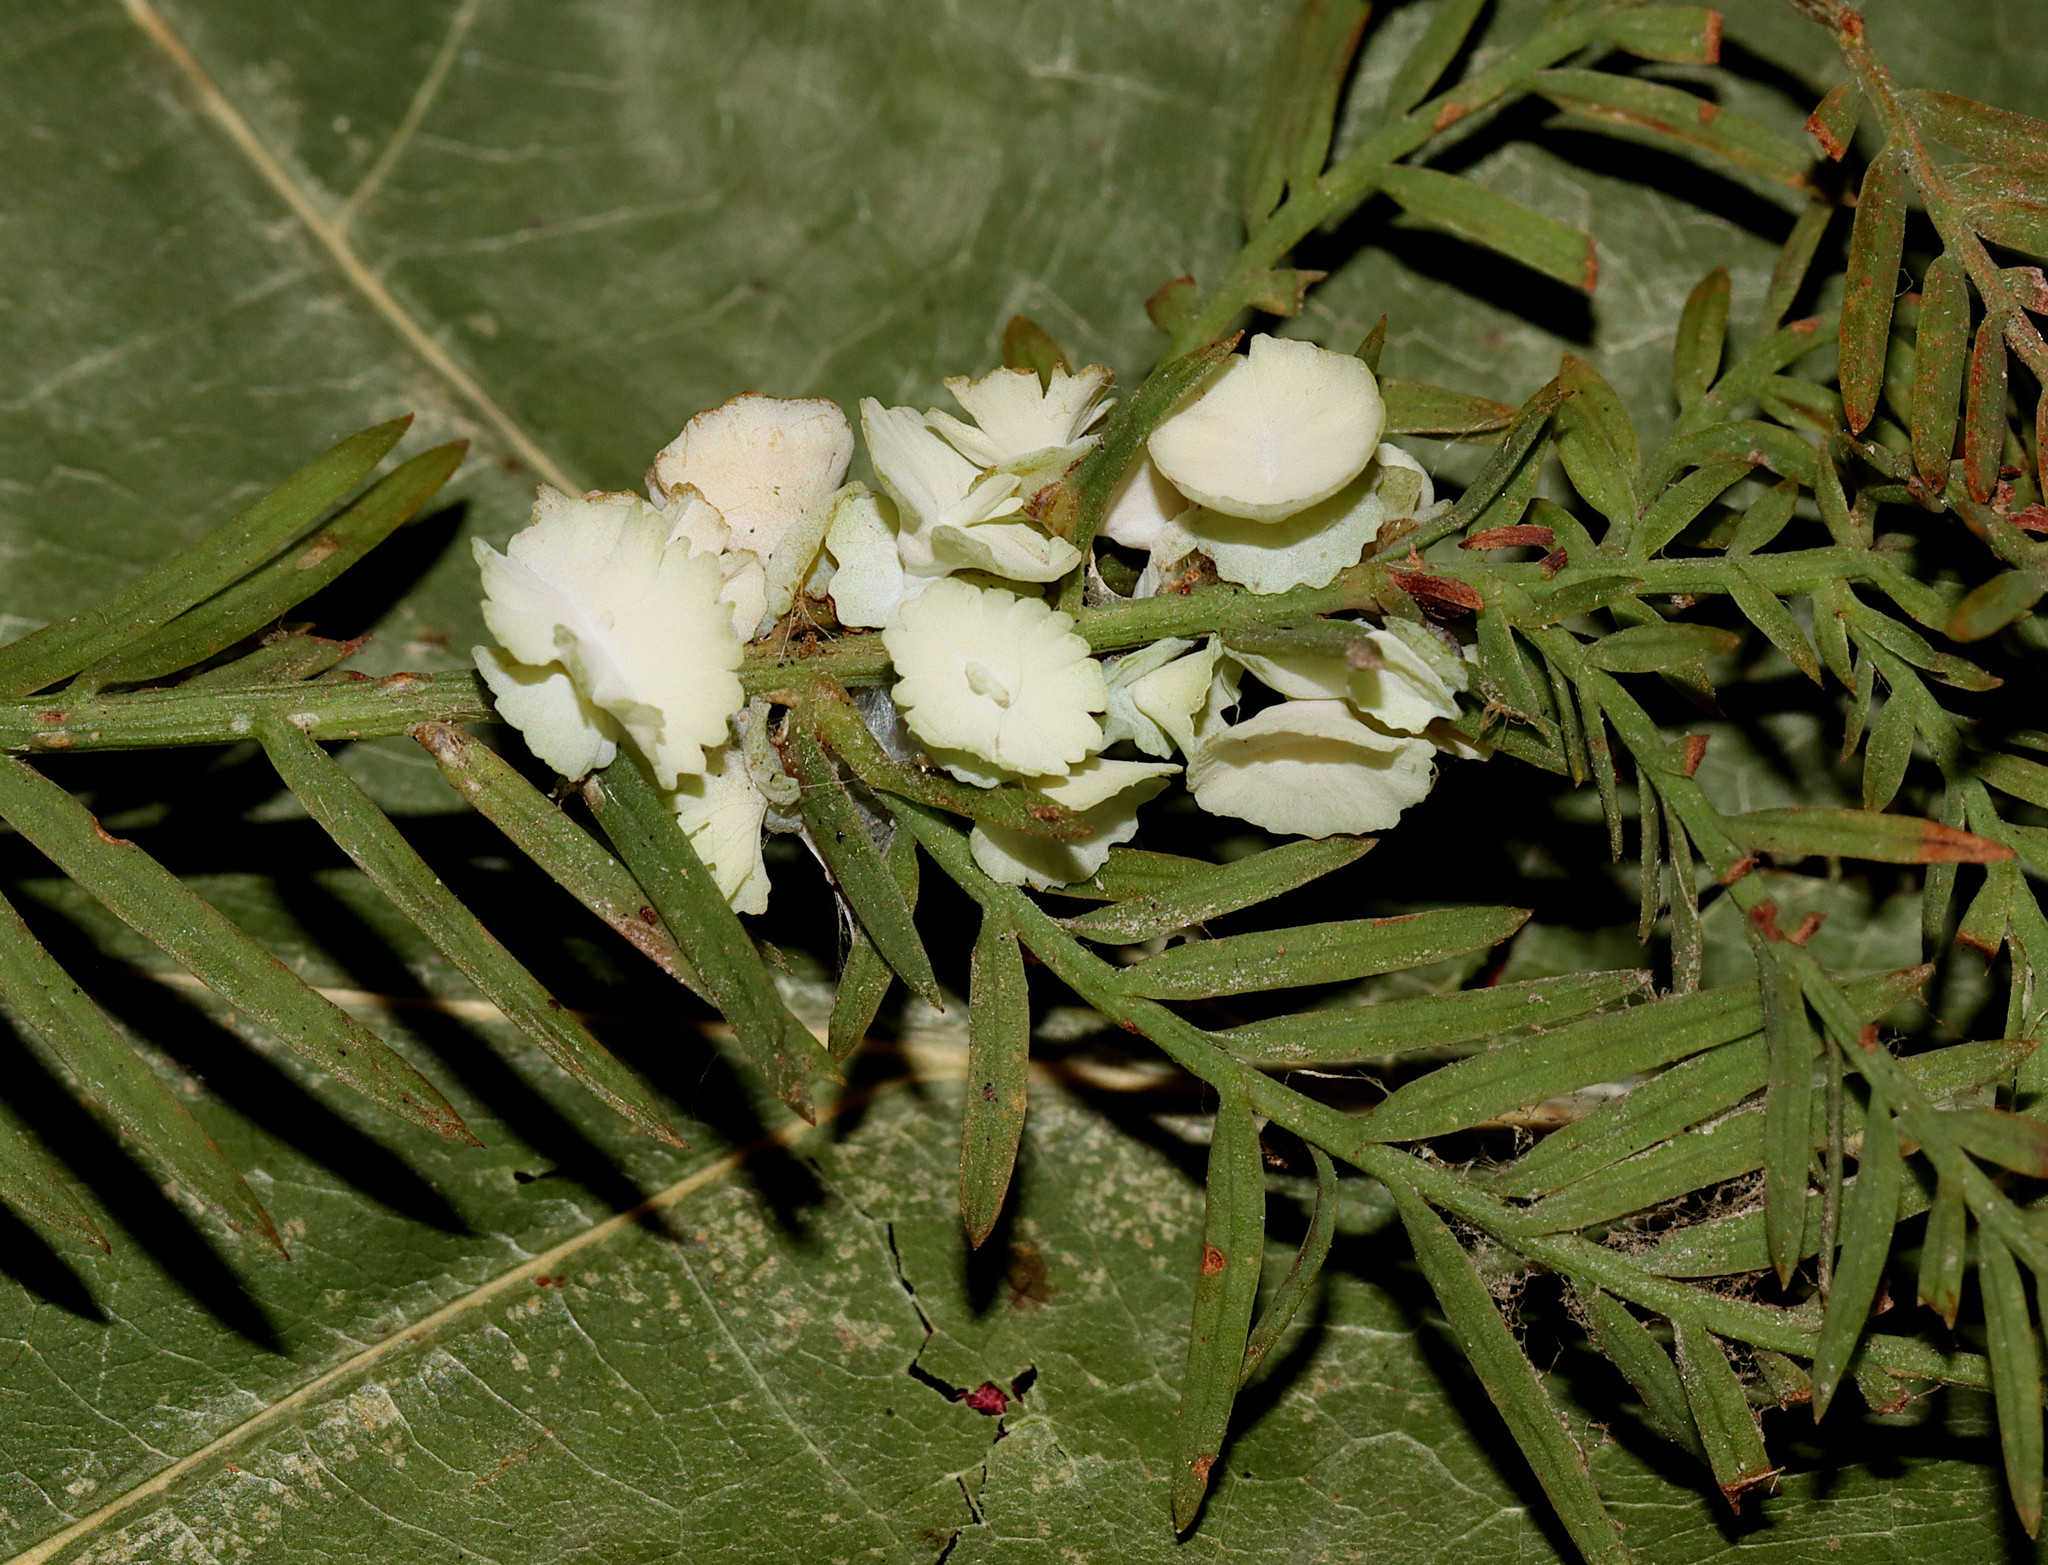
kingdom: Animalia
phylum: Arthropoda
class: Insecta
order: Diptera
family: Cecidomyiidae
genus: Taxodiomyia
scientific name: Taxodiomyia cupressi
